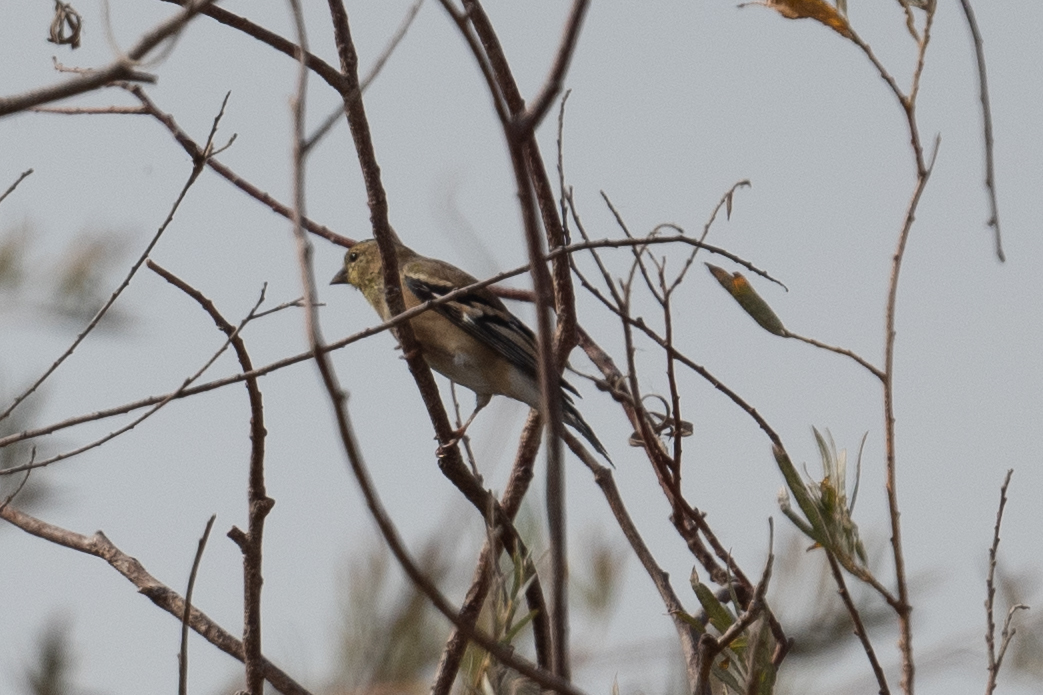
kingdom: Animalia
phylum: Chordata
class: Aves
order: Passeriformes
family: Fringillidae
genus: Spinus
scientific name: Spinus tristis
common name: American goldfinch
